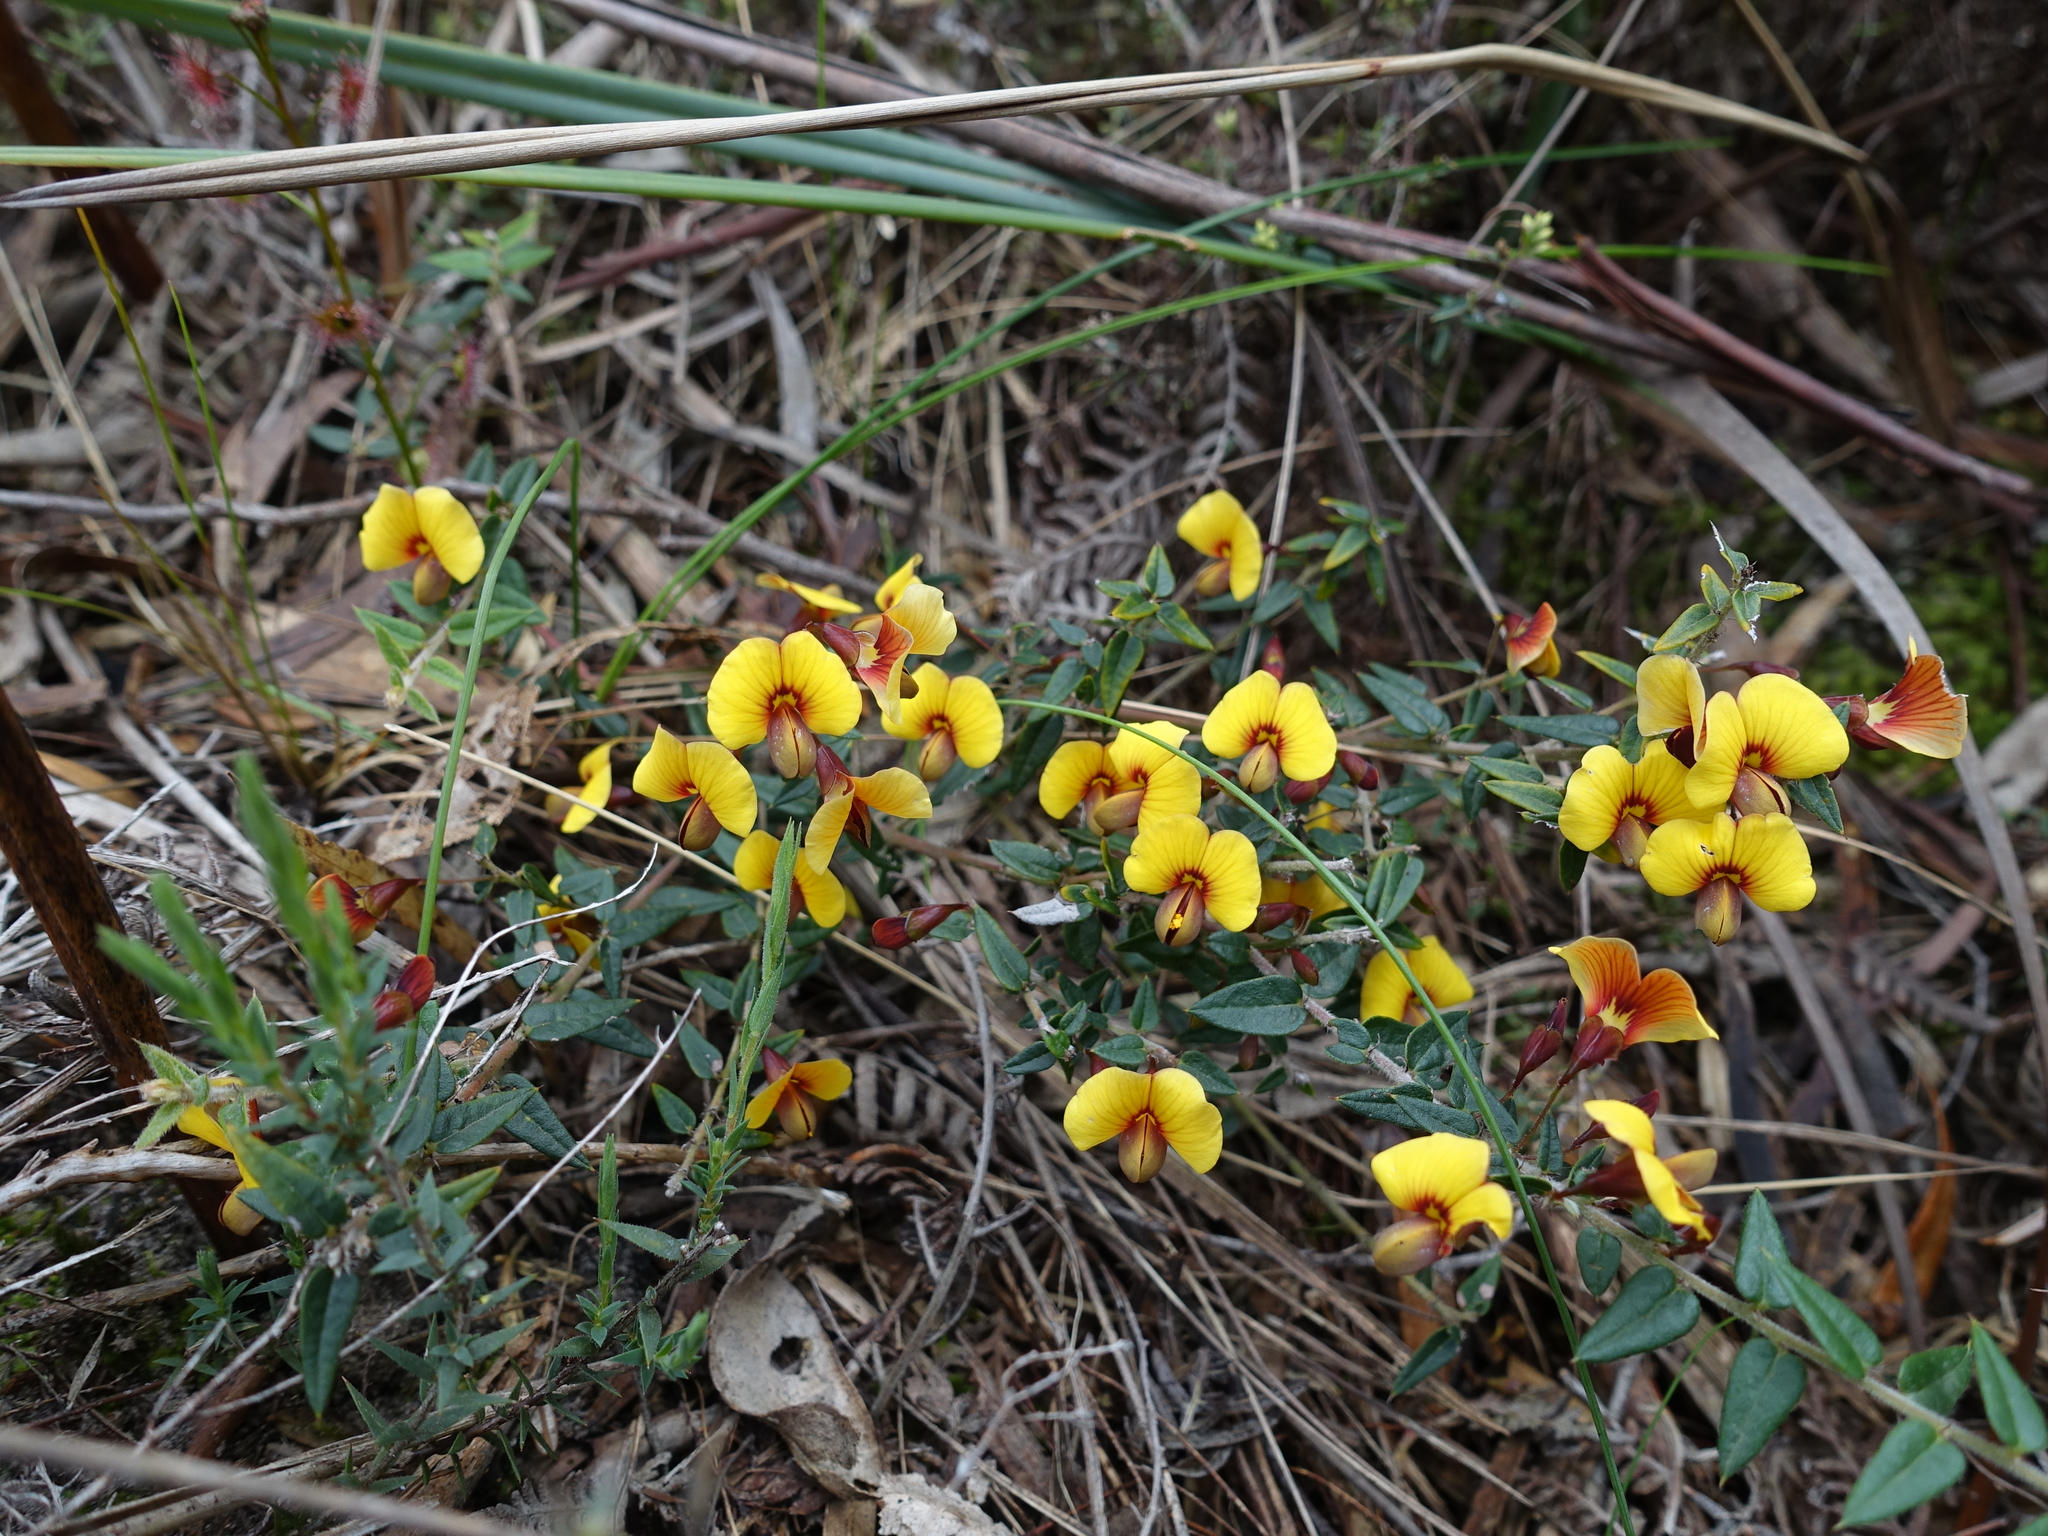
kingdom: Plantae
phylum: Tracheophyta
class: Magnoliopsida
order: Fabales
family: Fabaceae
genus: Bossiaea
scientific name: Bossiaea cinerea
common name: Showy bossiaea
